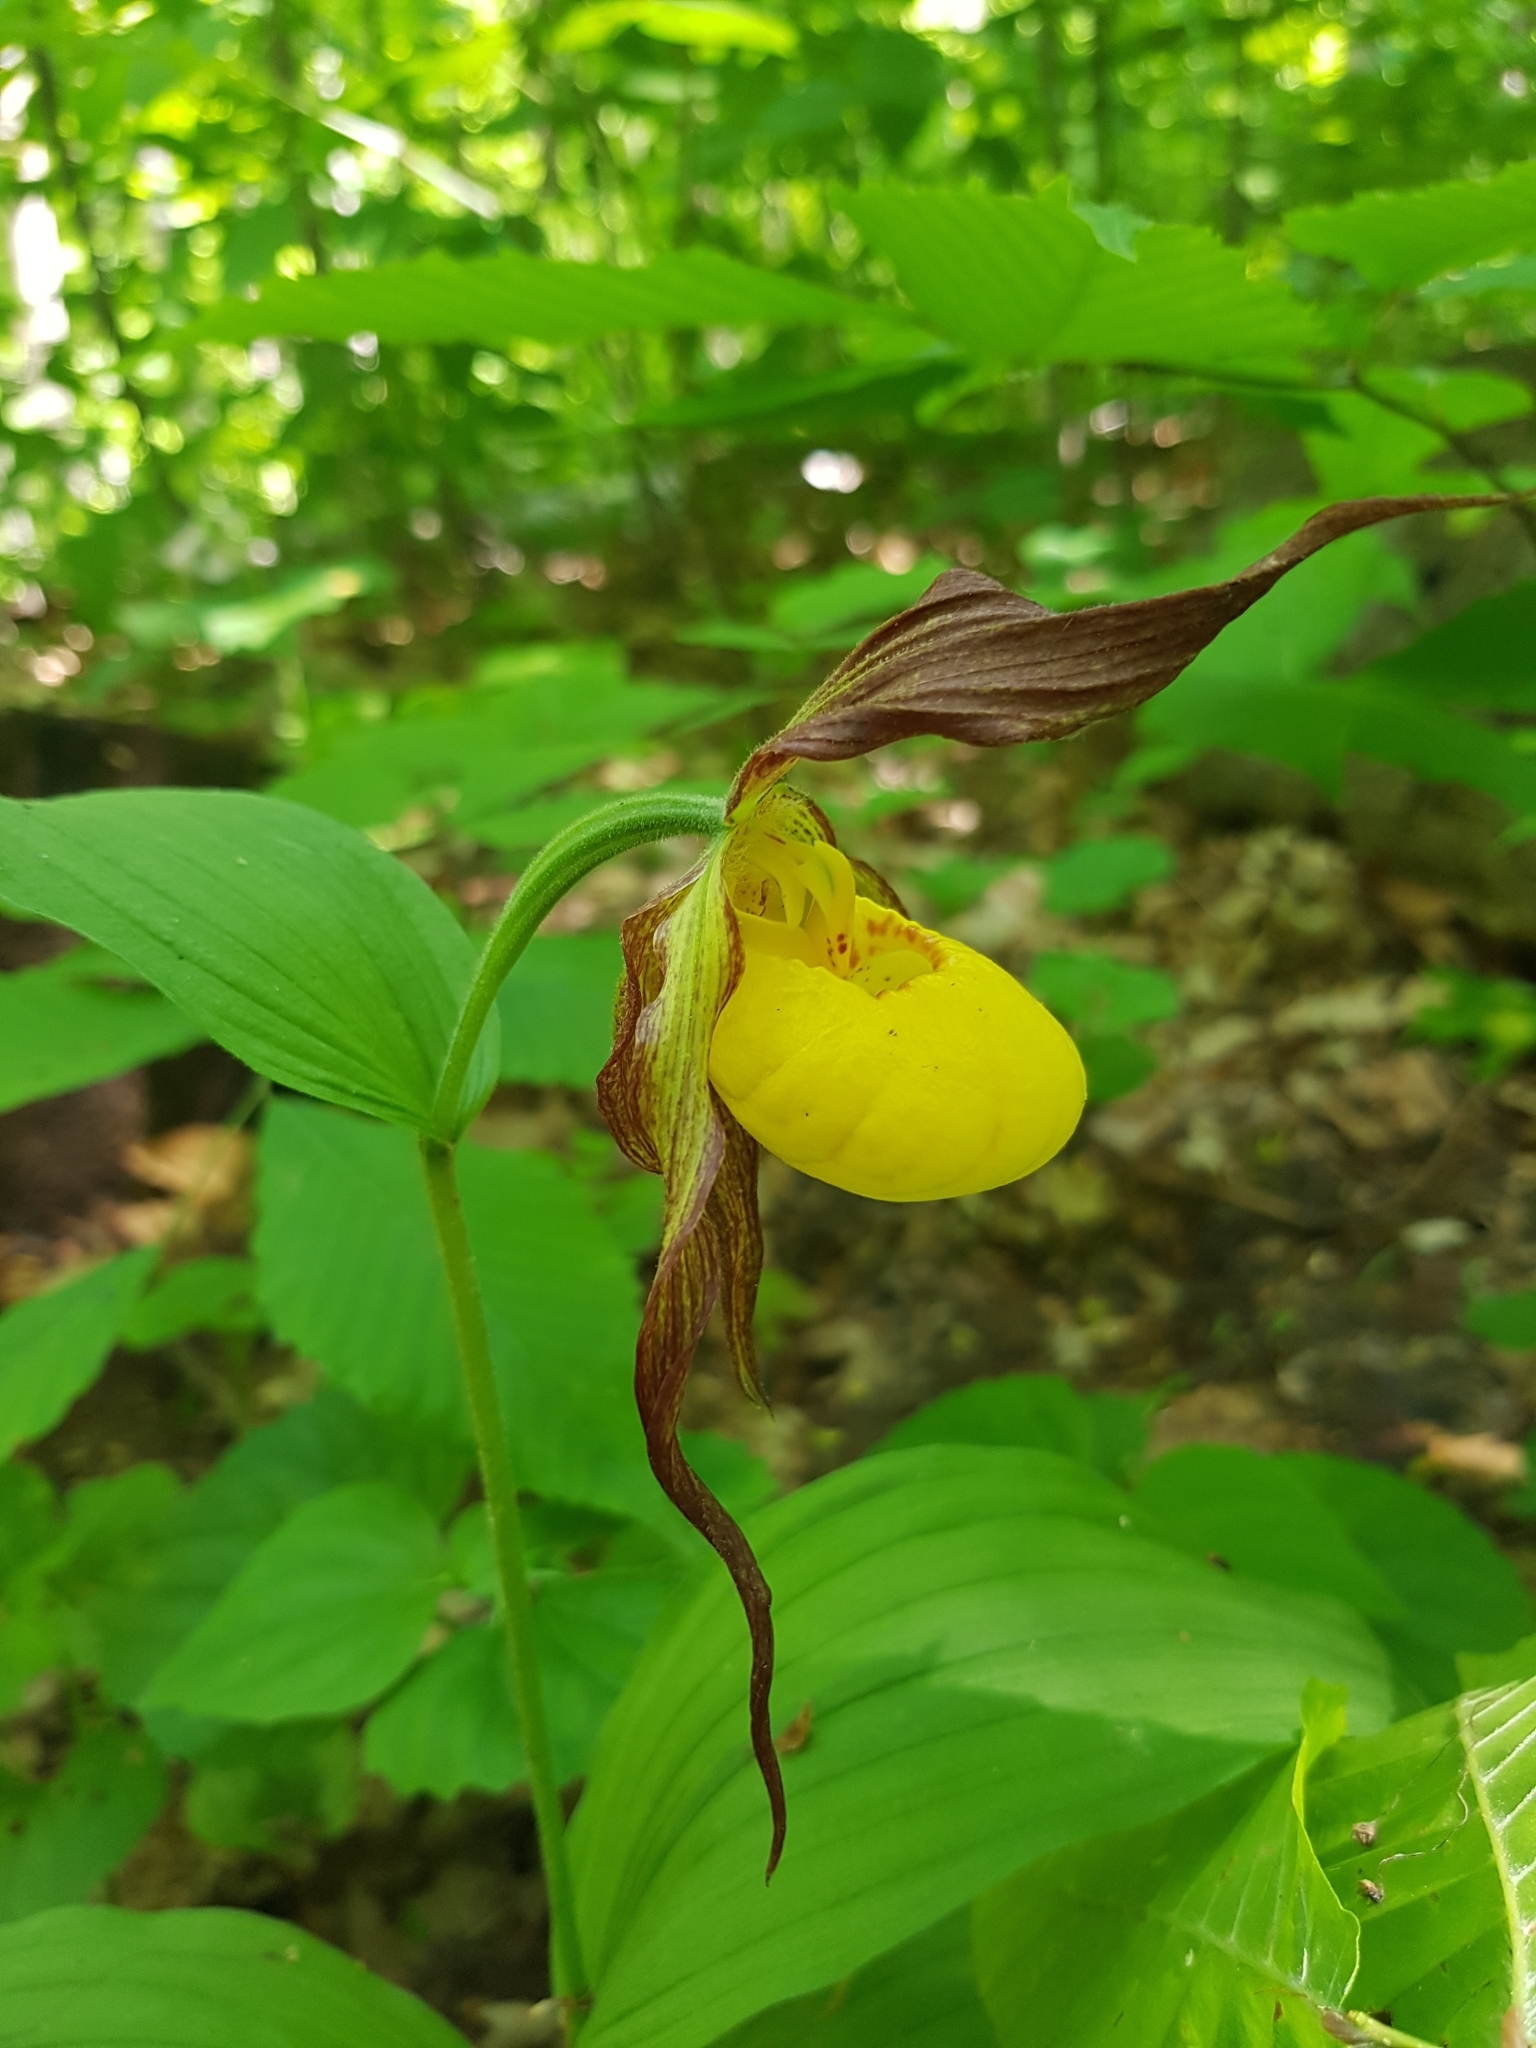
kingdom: Plantae
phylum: Tracheophyta
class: Liliopsida
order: Asparagales
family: Orchidaceae
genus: Cypripedium
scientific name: Cypripedium parviflorum
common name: American yellow lady's-slipper
